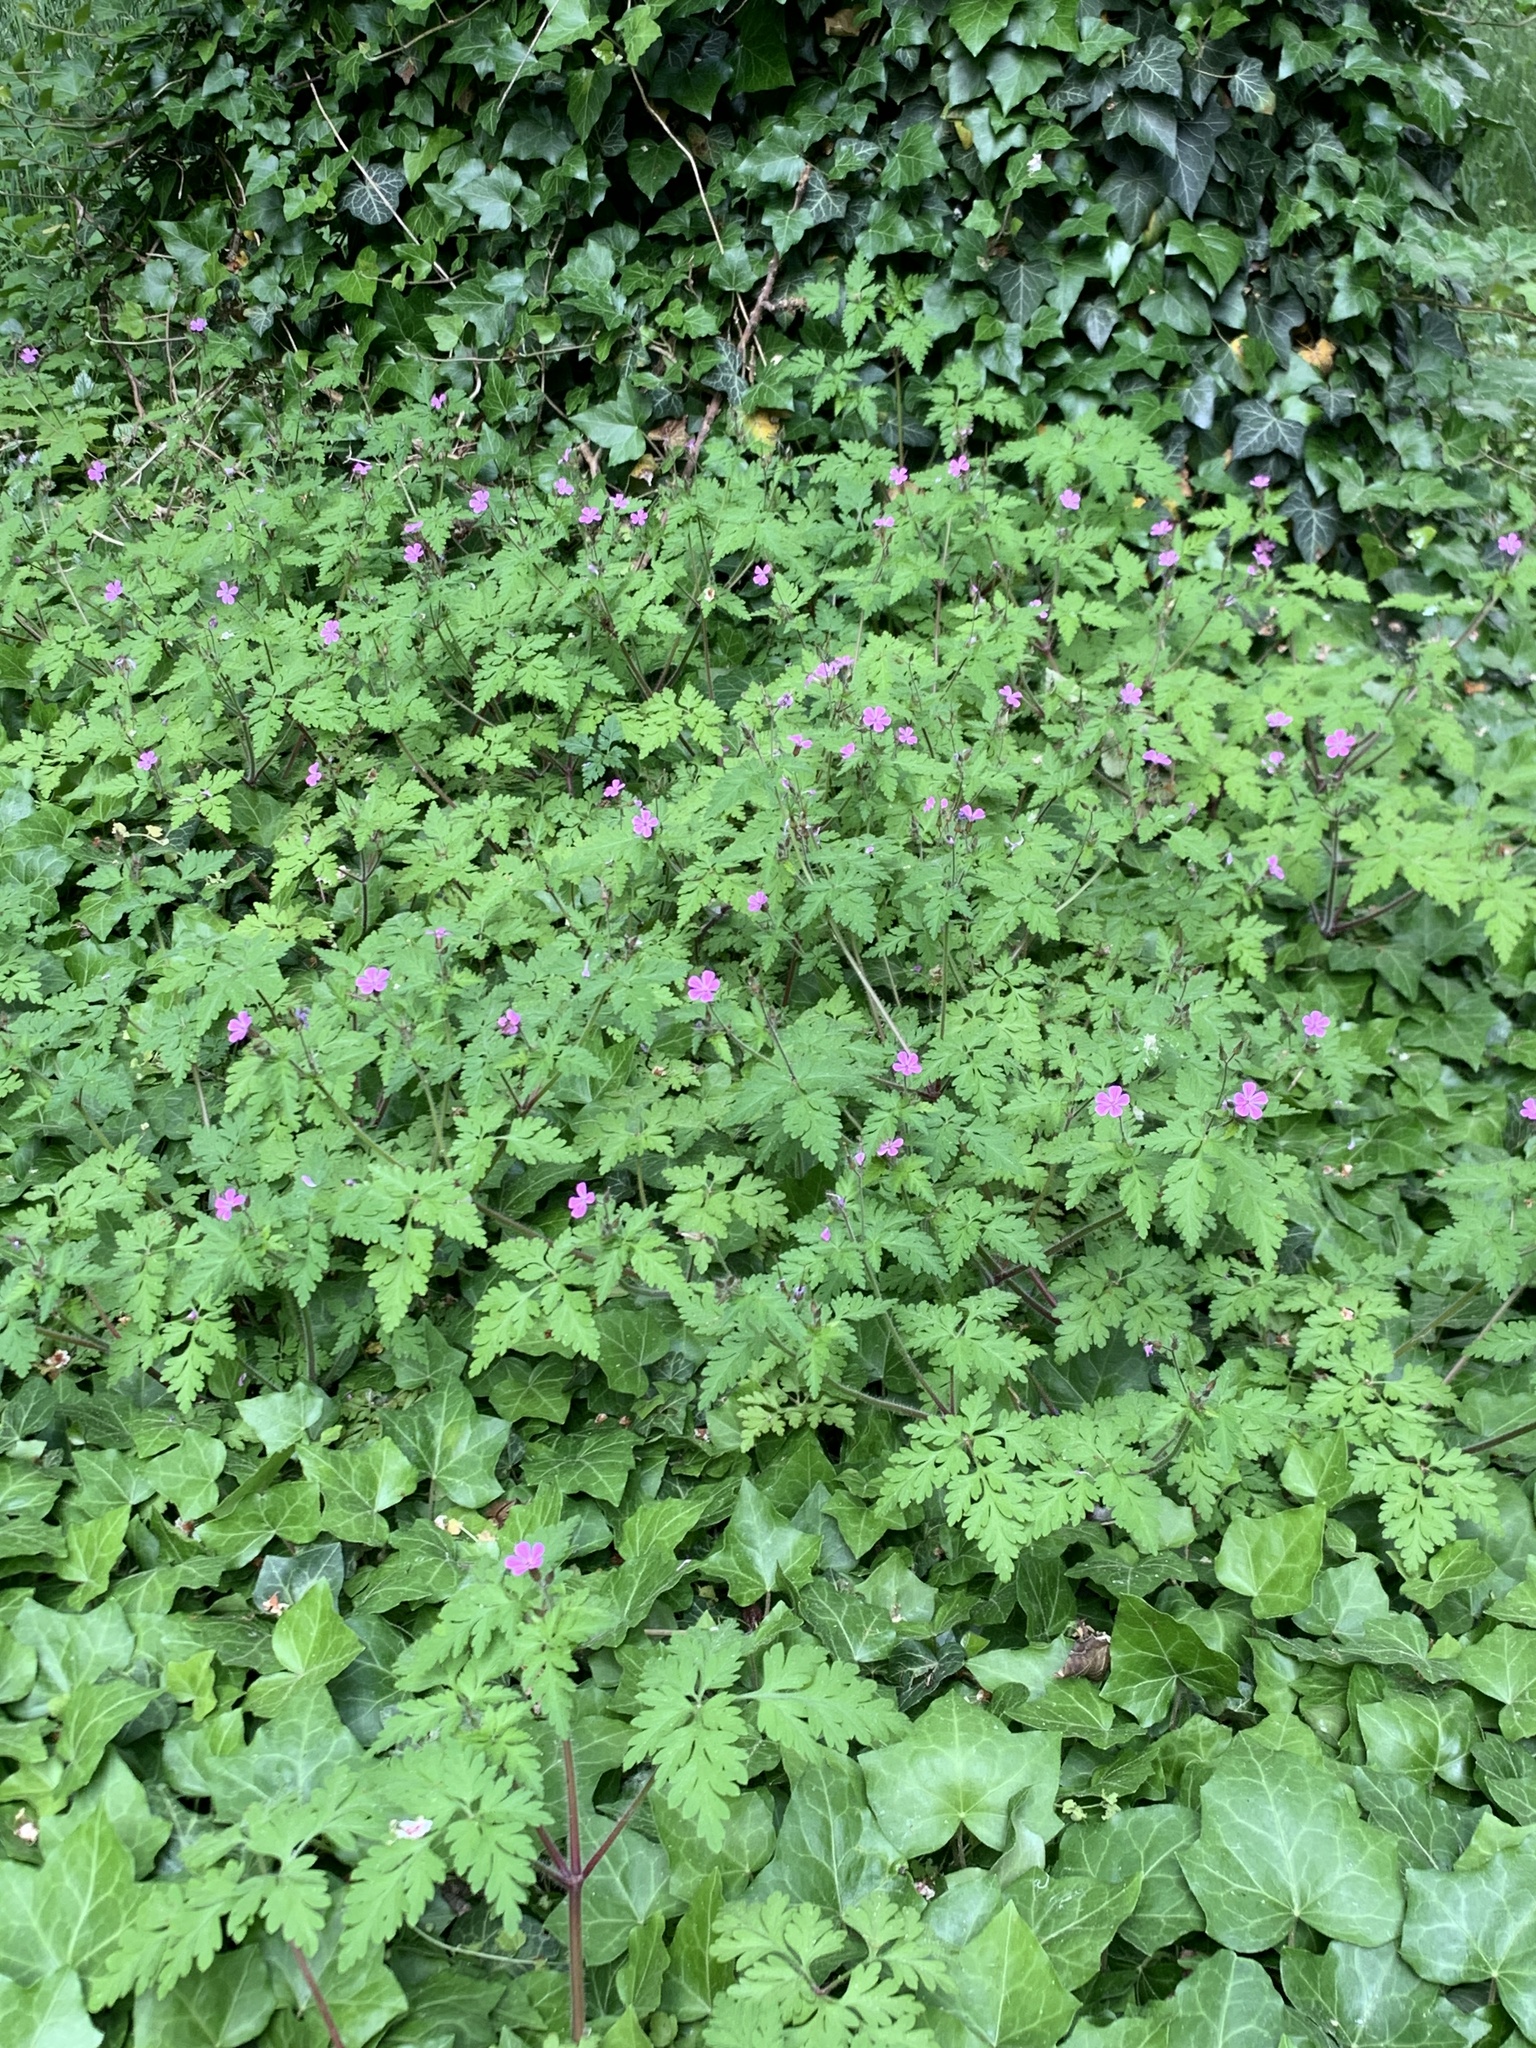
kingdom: Plantae
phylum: Tracheophyta
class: Magnoliopsida
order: Geraniales
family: Geraniaceae
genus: Geranium
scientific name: Geranium robertianum
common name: Herb-robert
